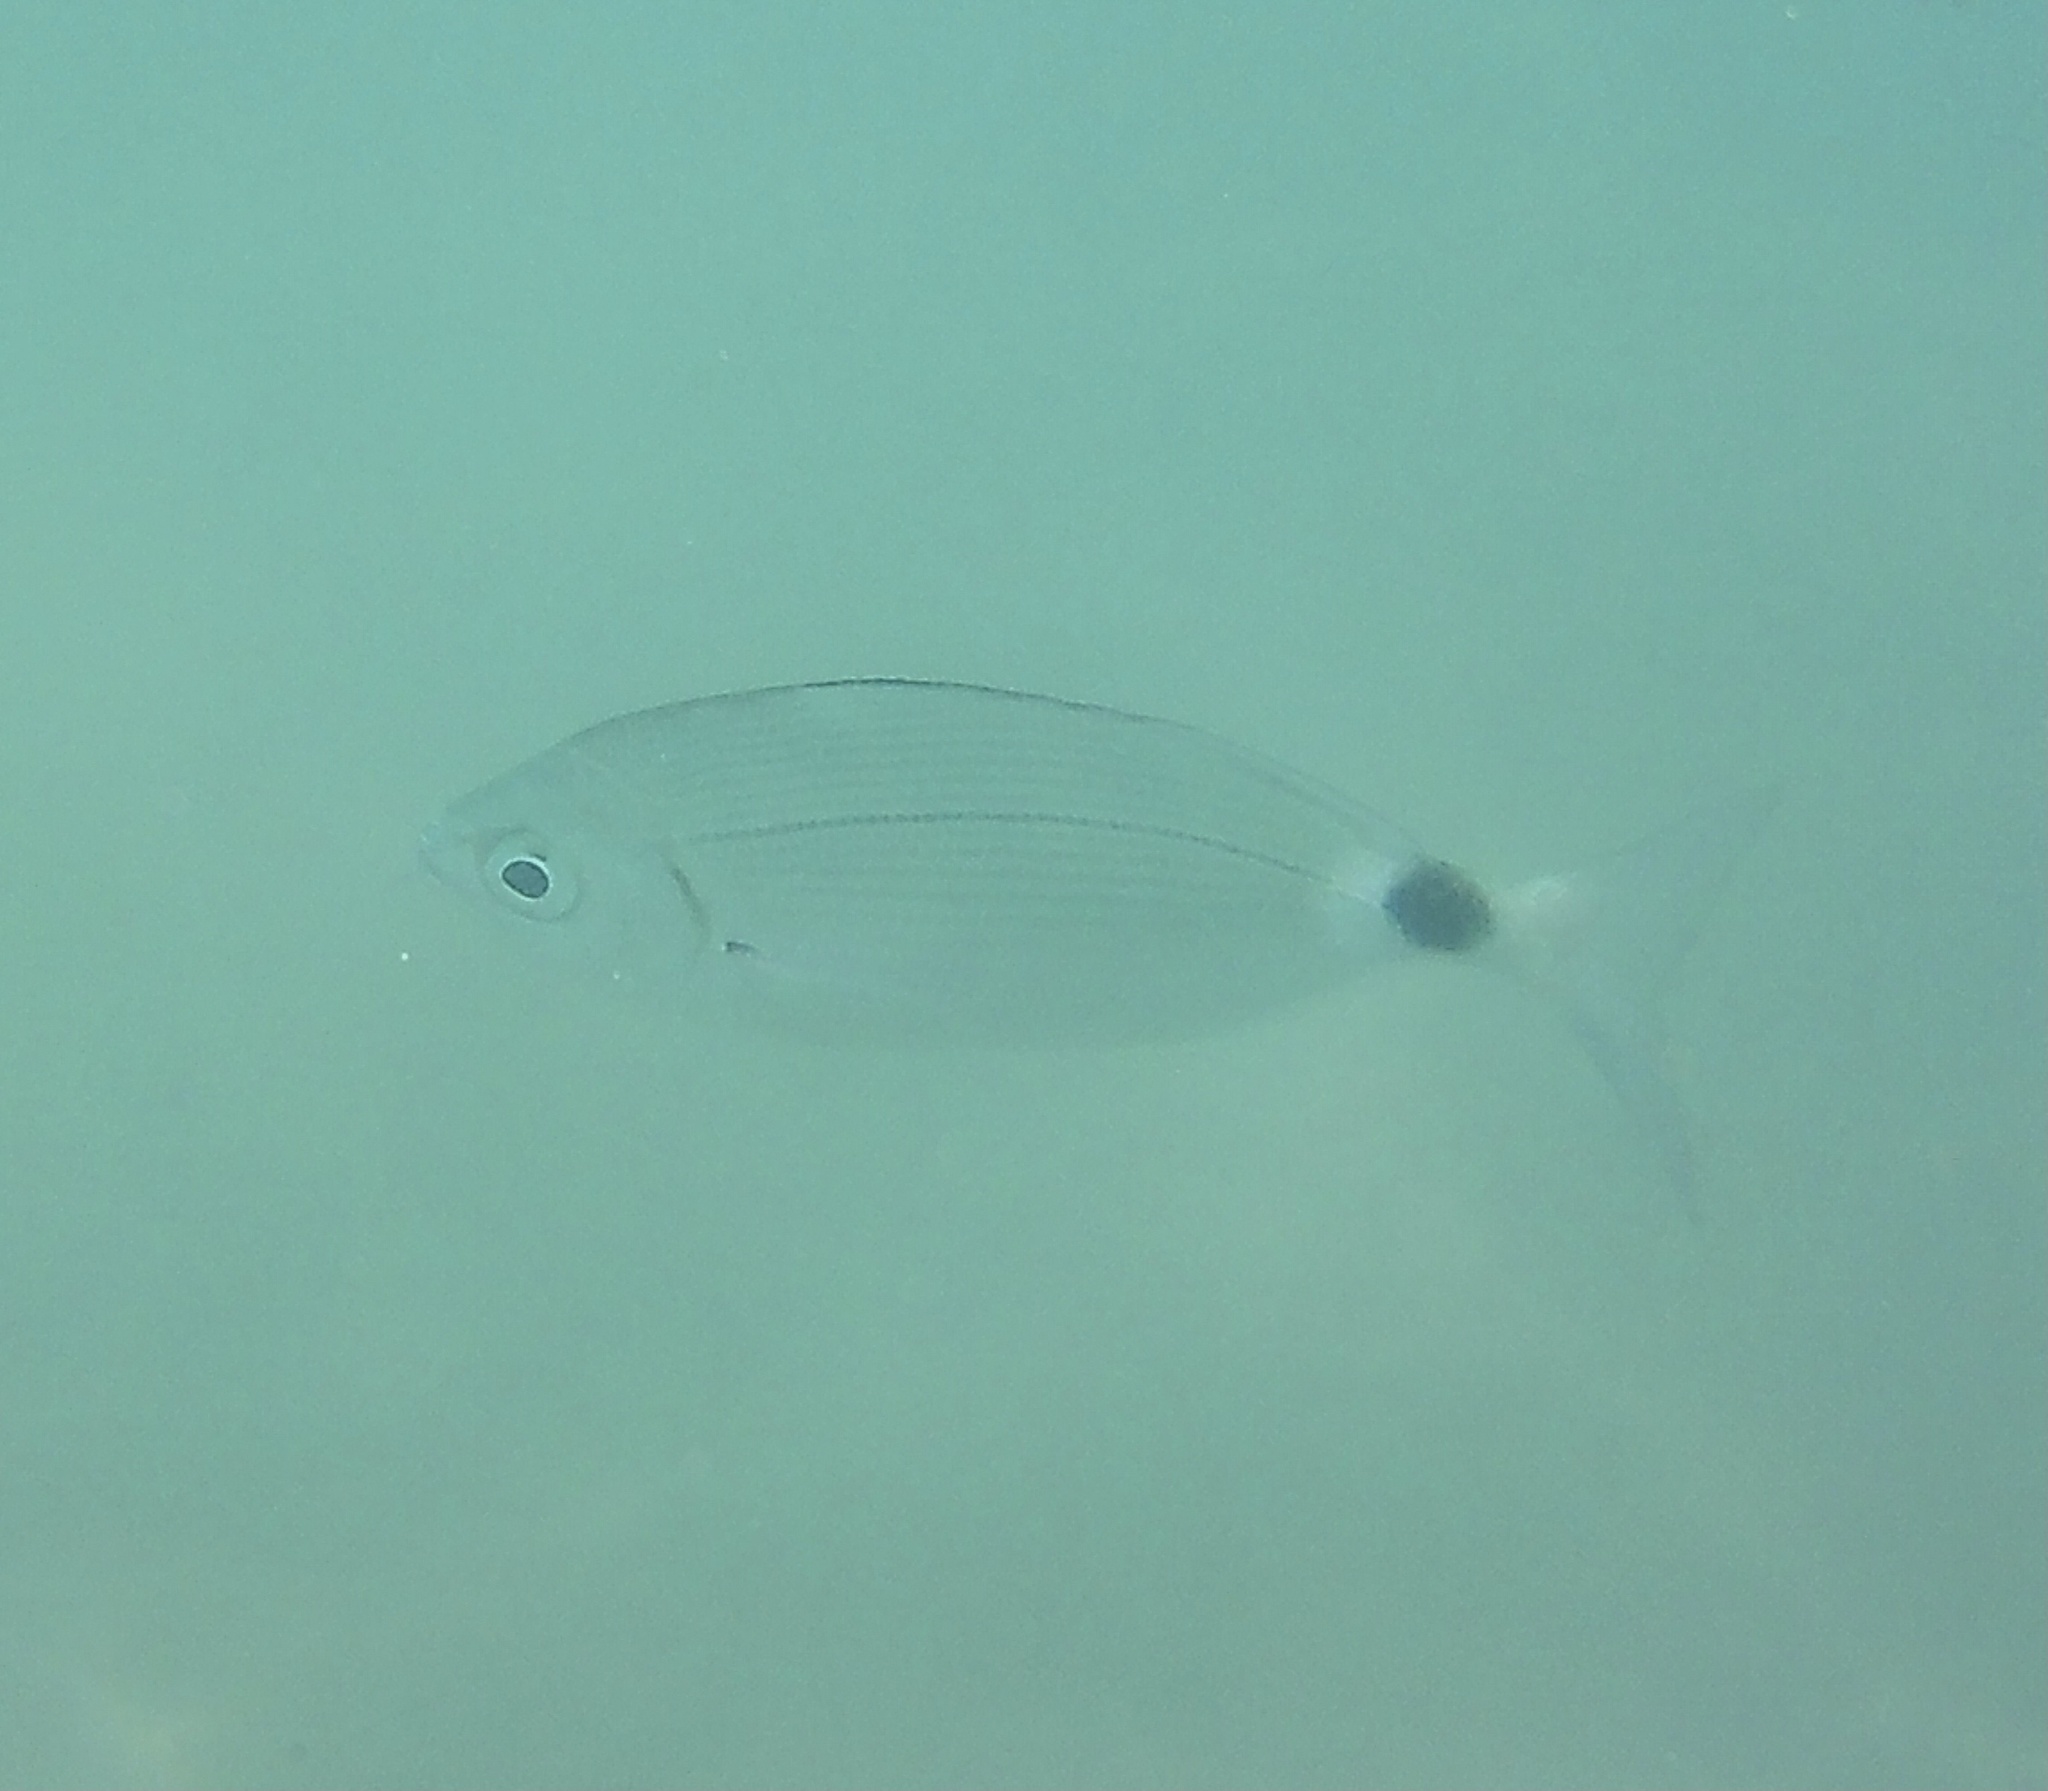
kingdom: Animalia
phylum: Chordata
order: Perciformes
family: Sparidae
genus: Oblada
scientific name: Oblada melanura
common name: Saddled seabream
